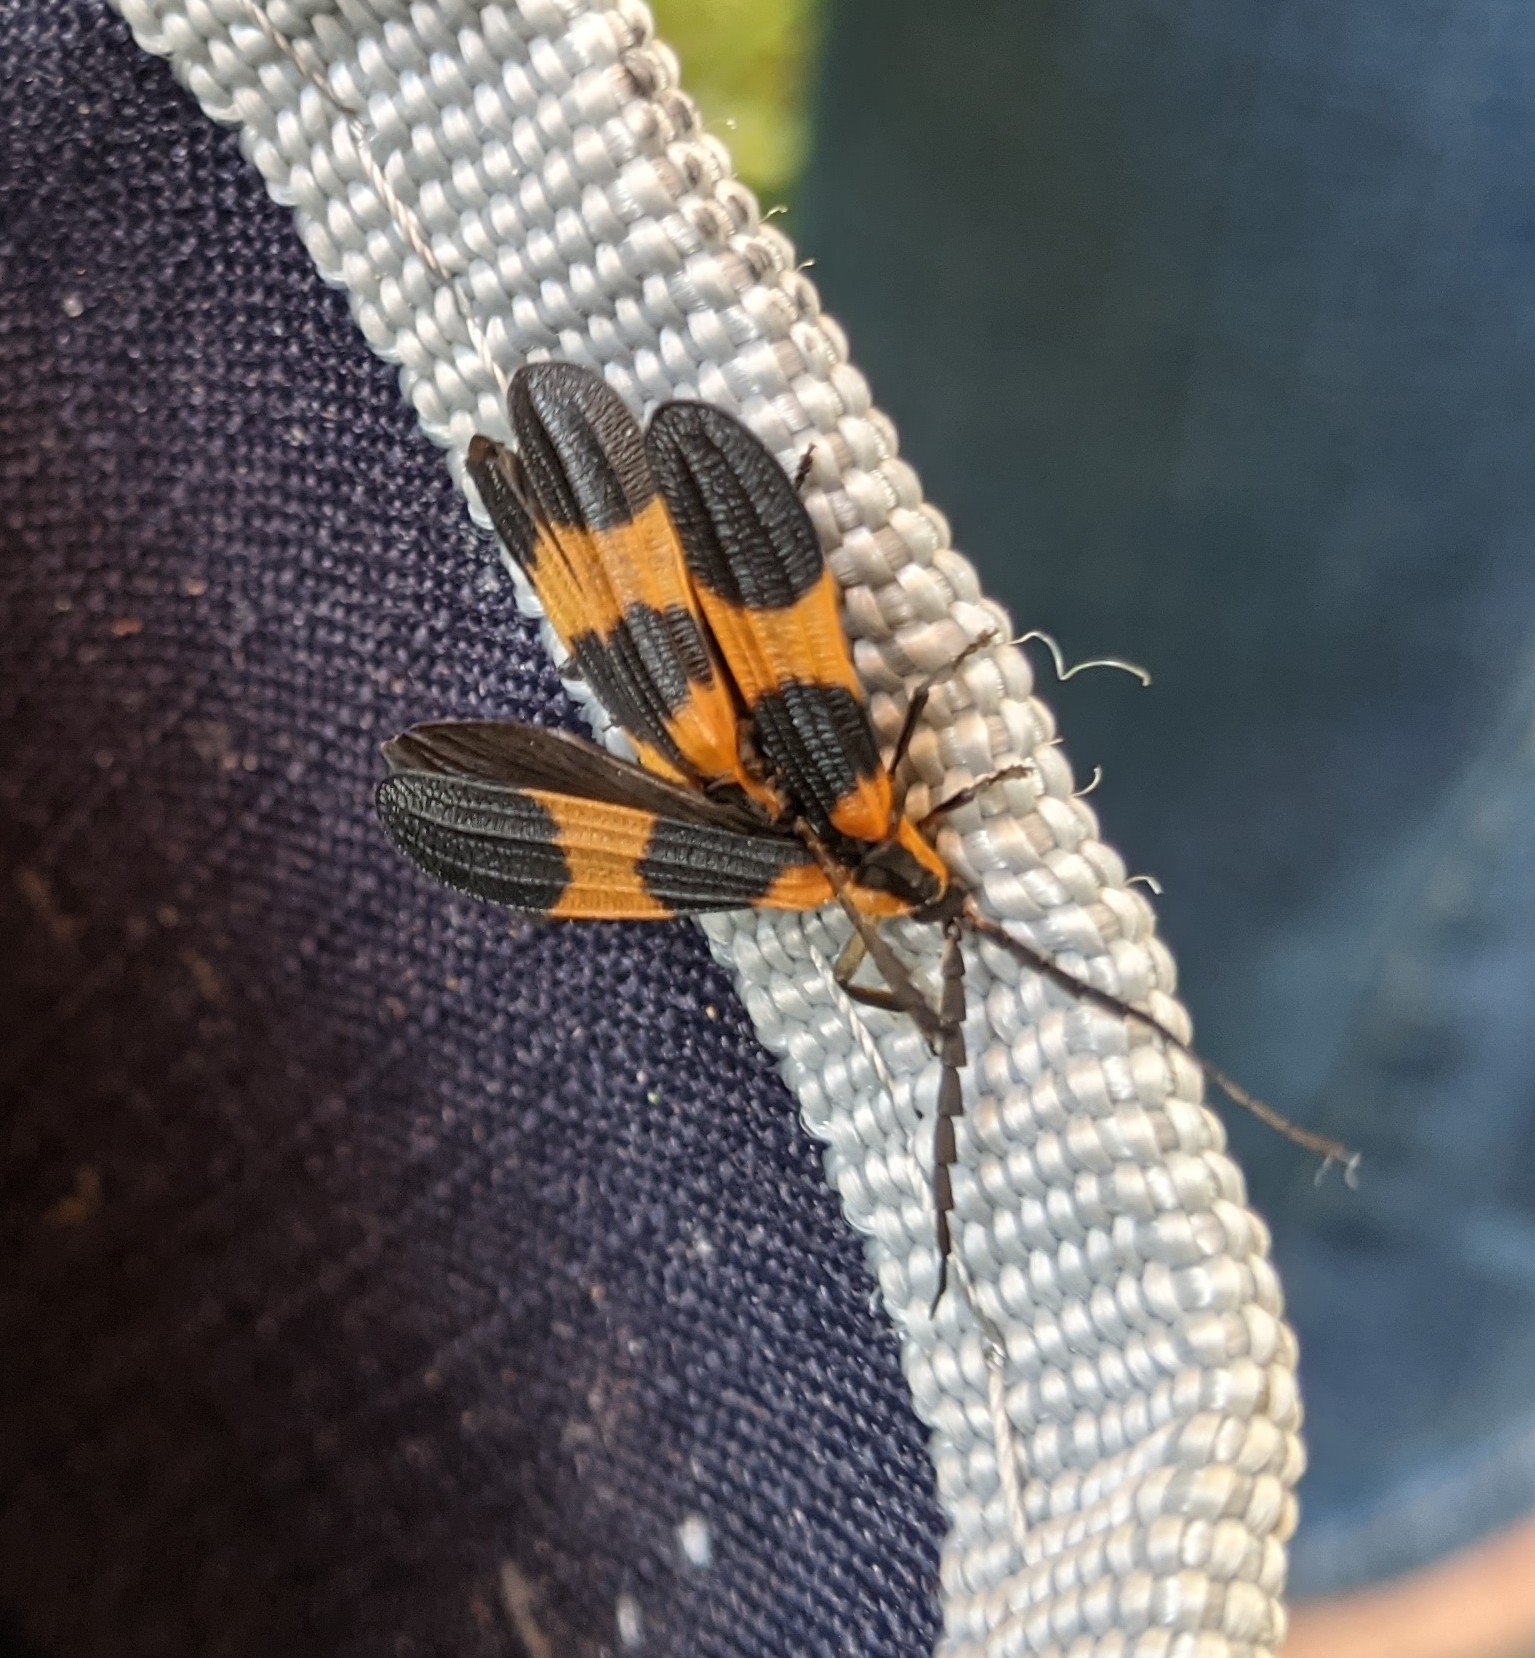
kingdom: Animalia
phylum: Arthropoda
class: Insecta
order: Coleoptera
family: Lycidae
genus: Calopteron
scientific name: Calopteron reticulatum
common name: Banded net-winged beetle
